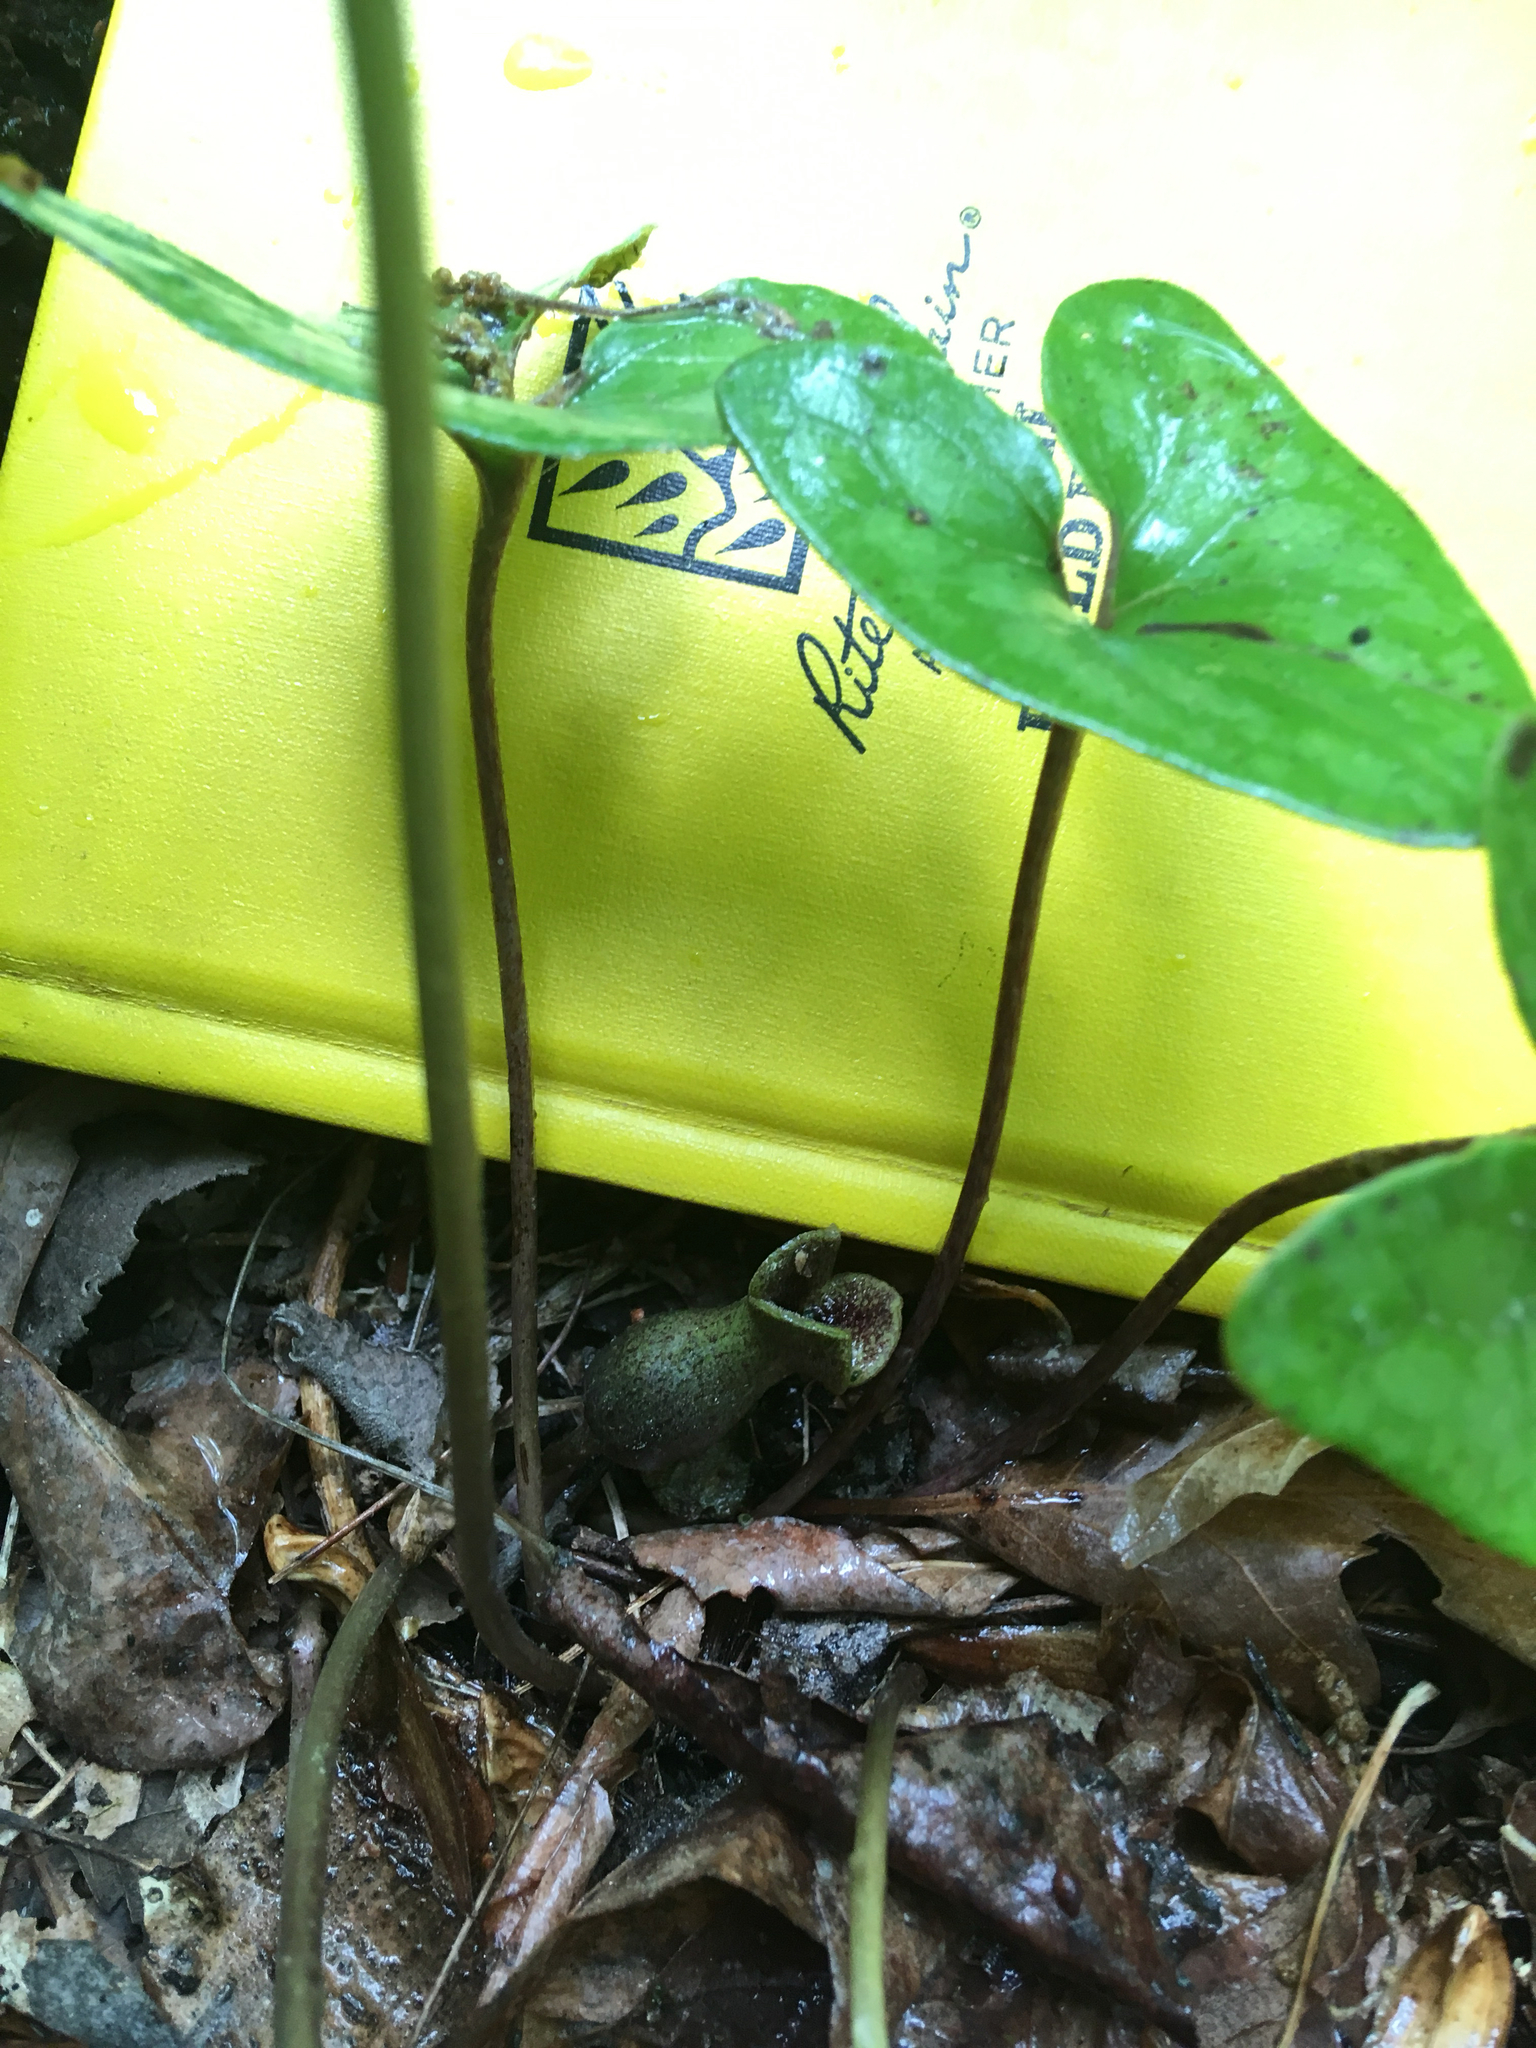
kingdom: Plantae
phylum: Tracheophyta
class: Magnoliopsida
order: Piperales
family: Aristolochiaceae
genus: Hexastylis
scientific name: Hexastylis arifolia
